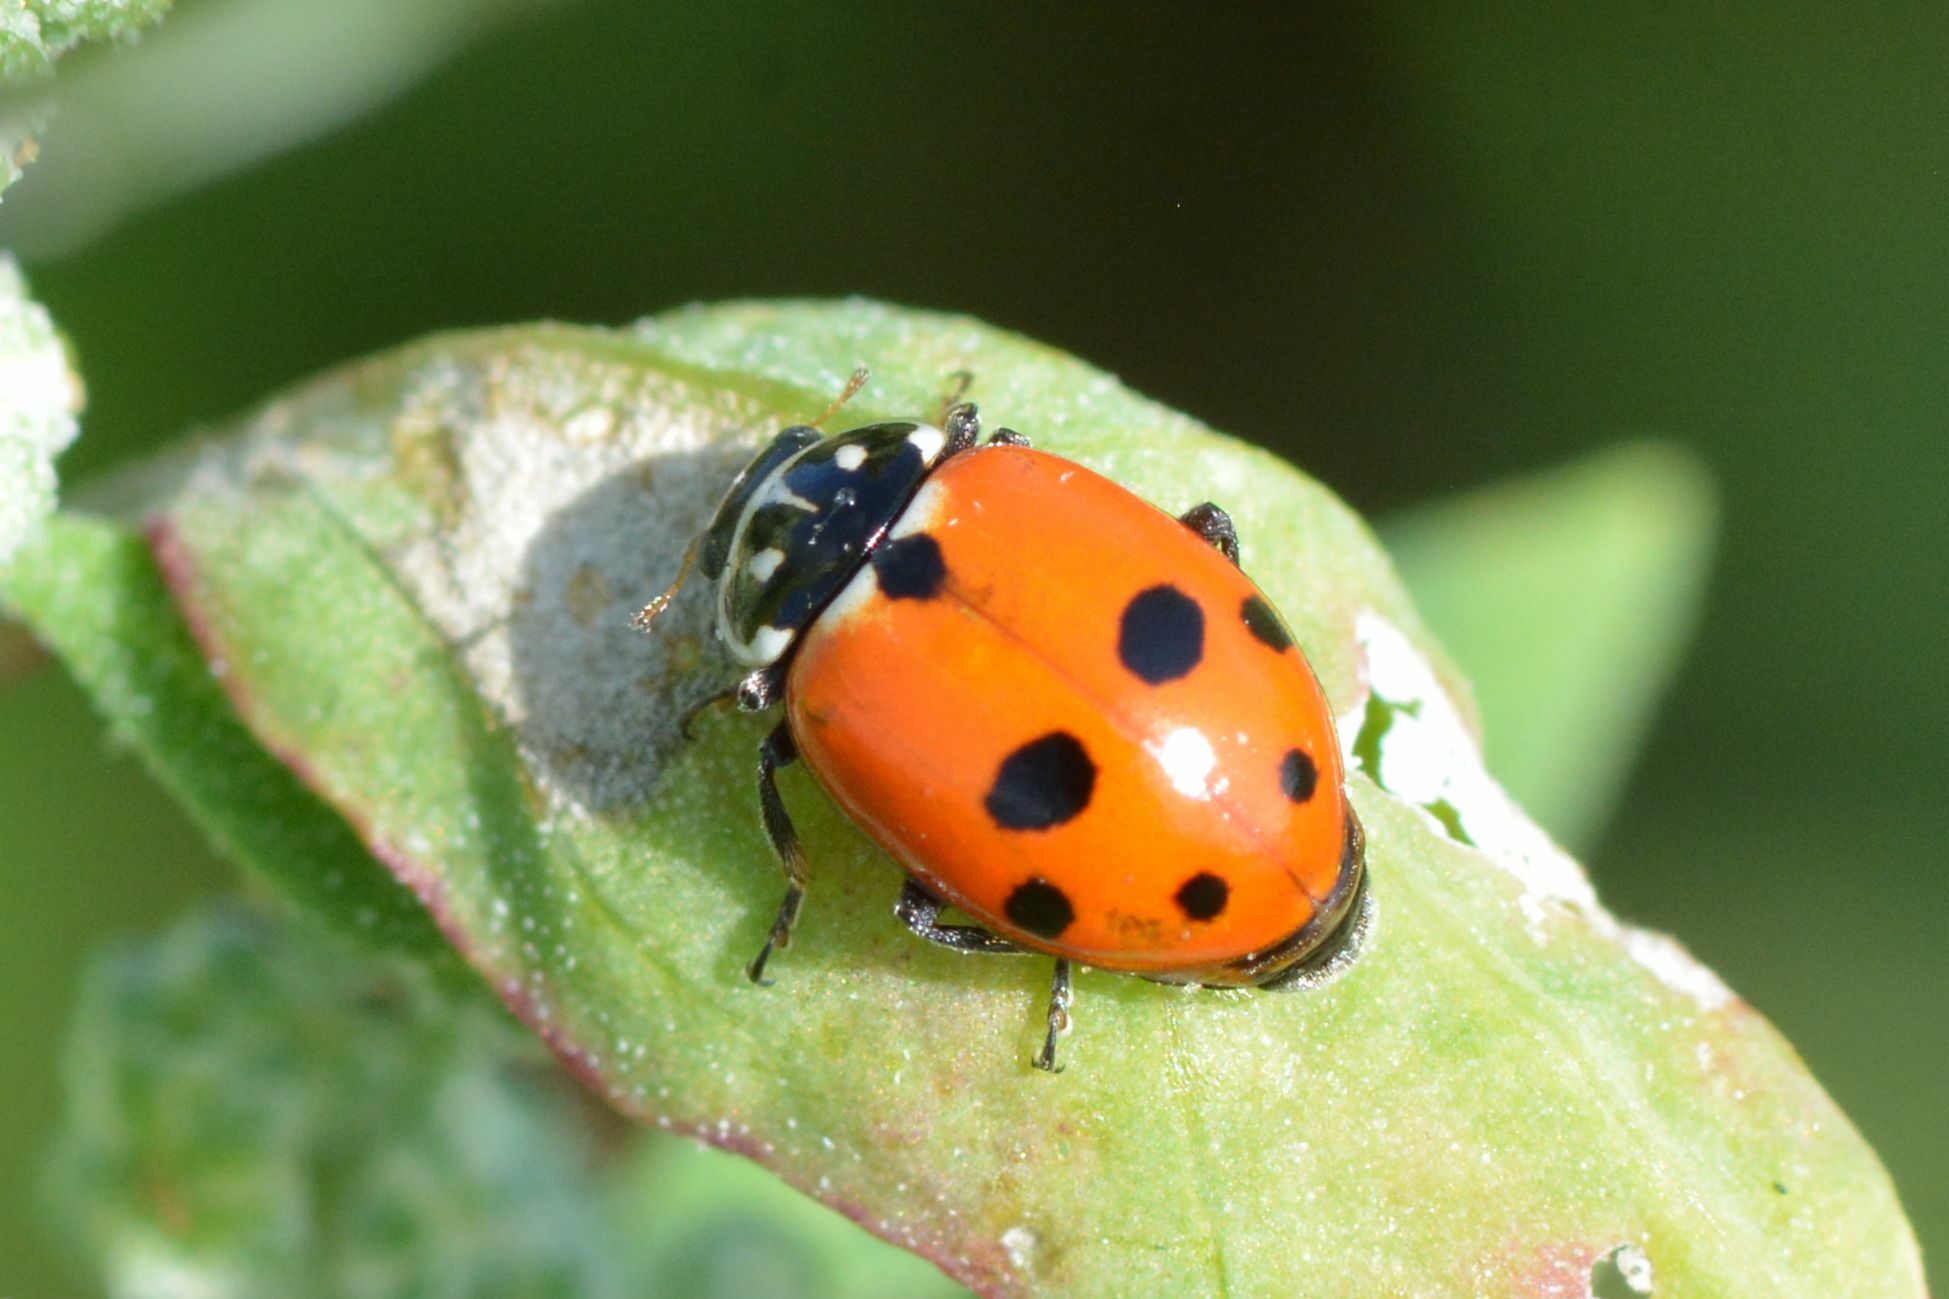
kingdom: Animalia
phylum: Arthropoda
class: Insecta
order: Coleoptera
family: Coccinellidae
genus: Hippodamia
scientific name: Hippodamia variegata
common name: Ladybird beetle
